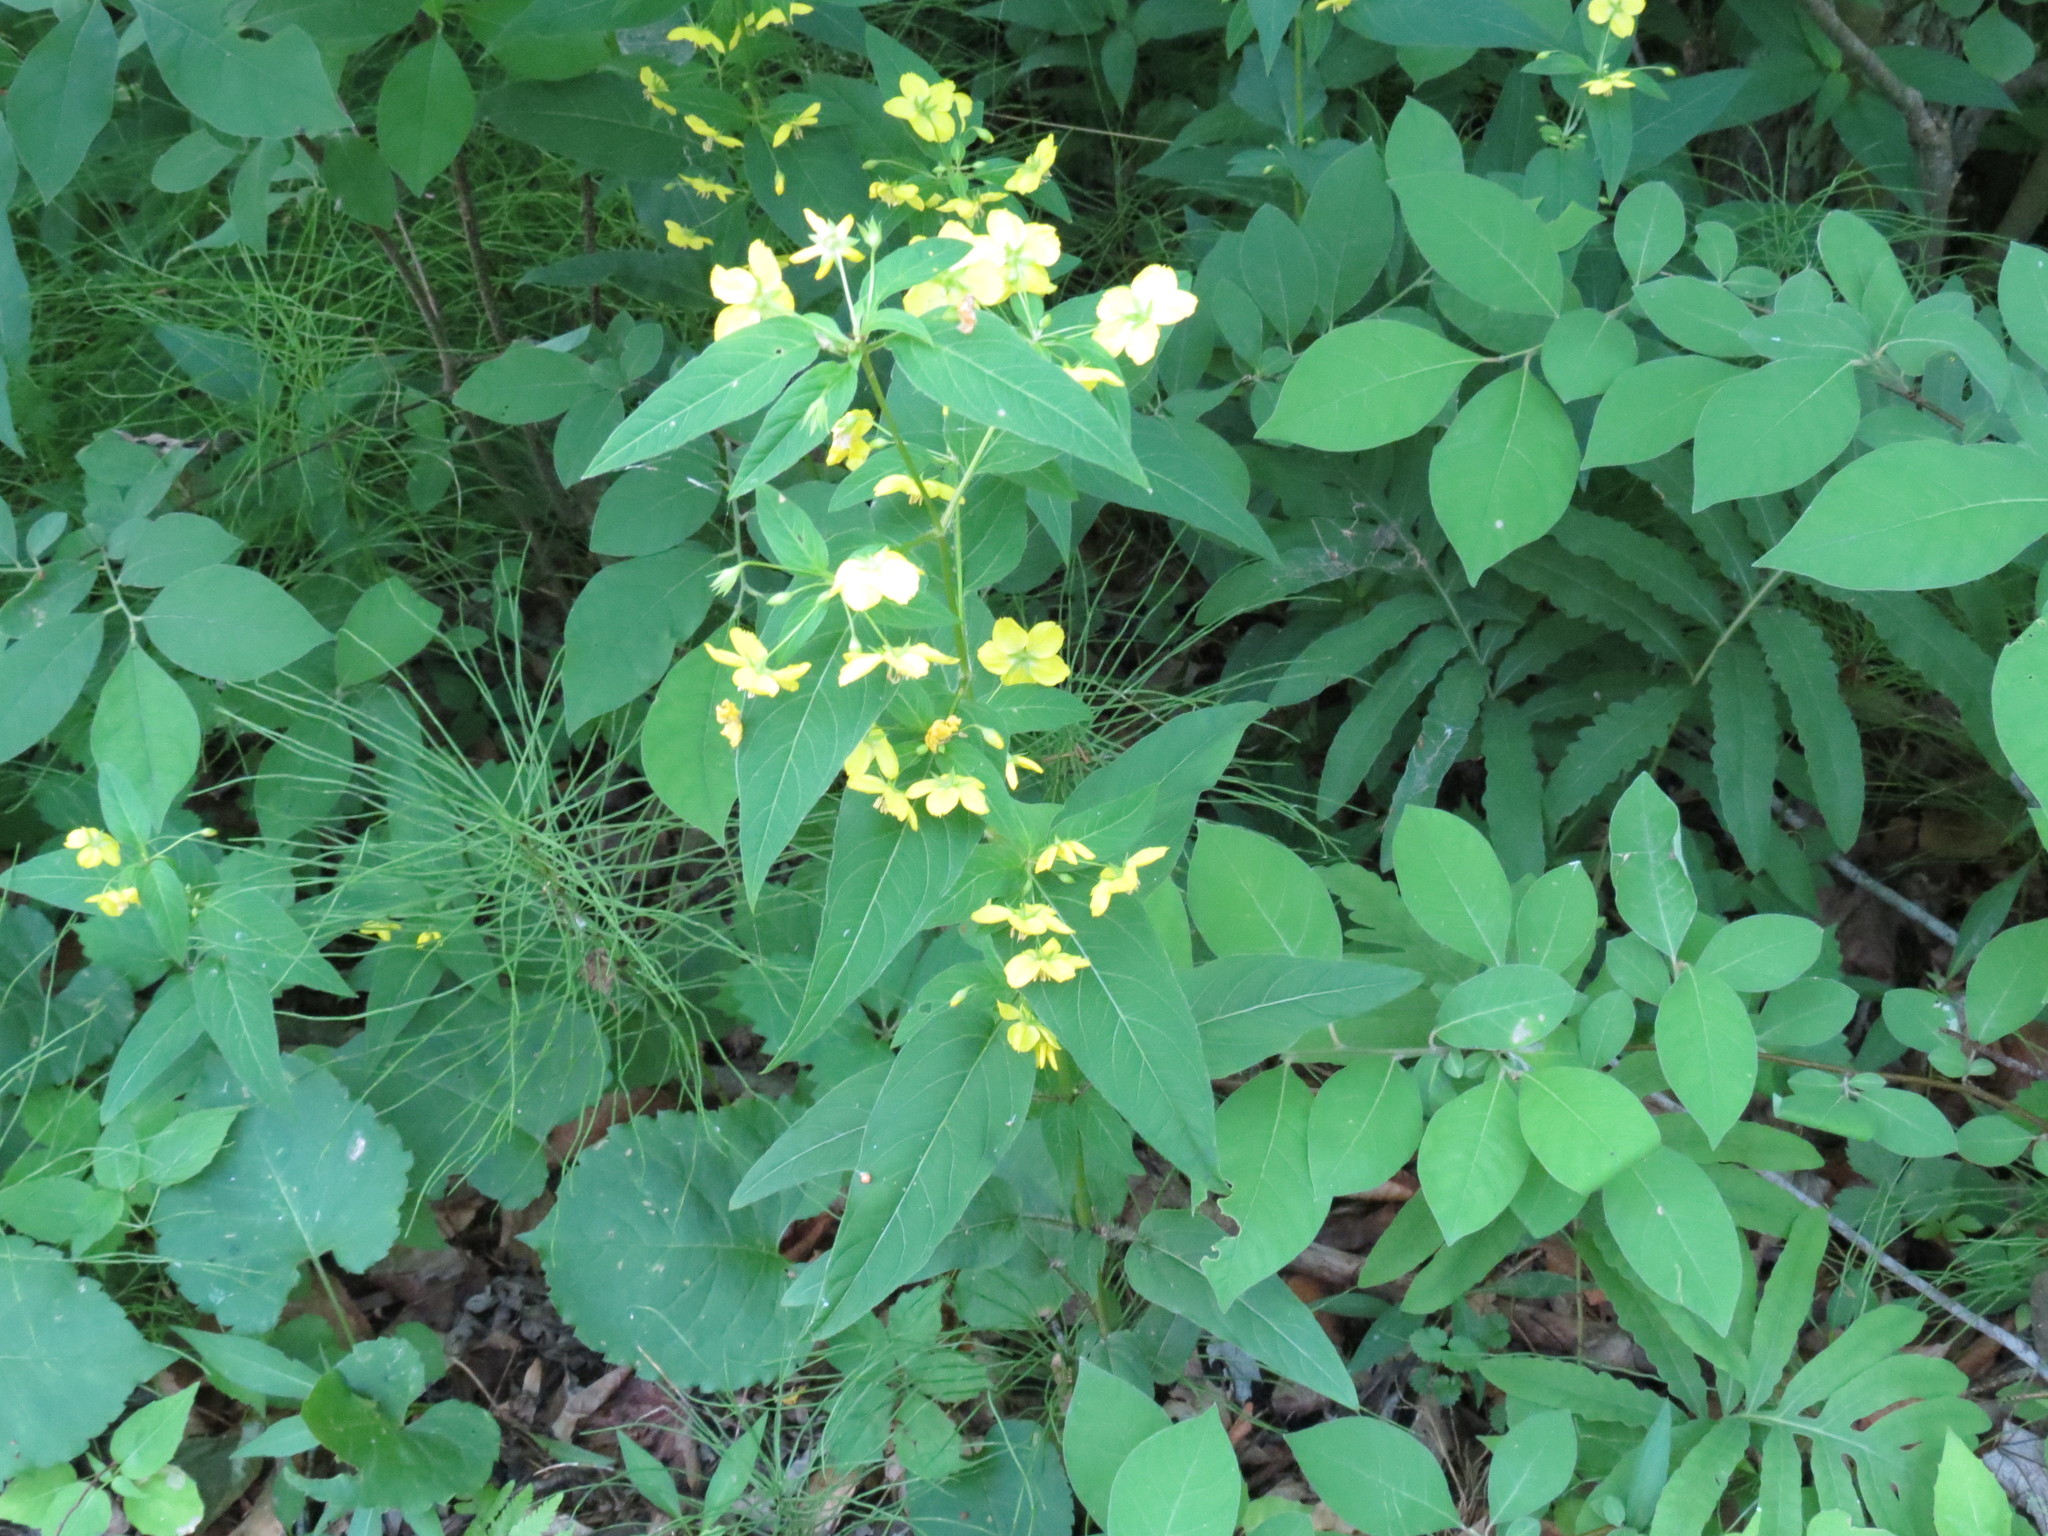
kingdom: Plantae
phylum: Tracheophyta
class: Magnoliopsida
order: Ericales
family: Primulaceae
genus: Lysimachia
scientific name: Lysimachia ciliata
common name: Fringed loosestrife
